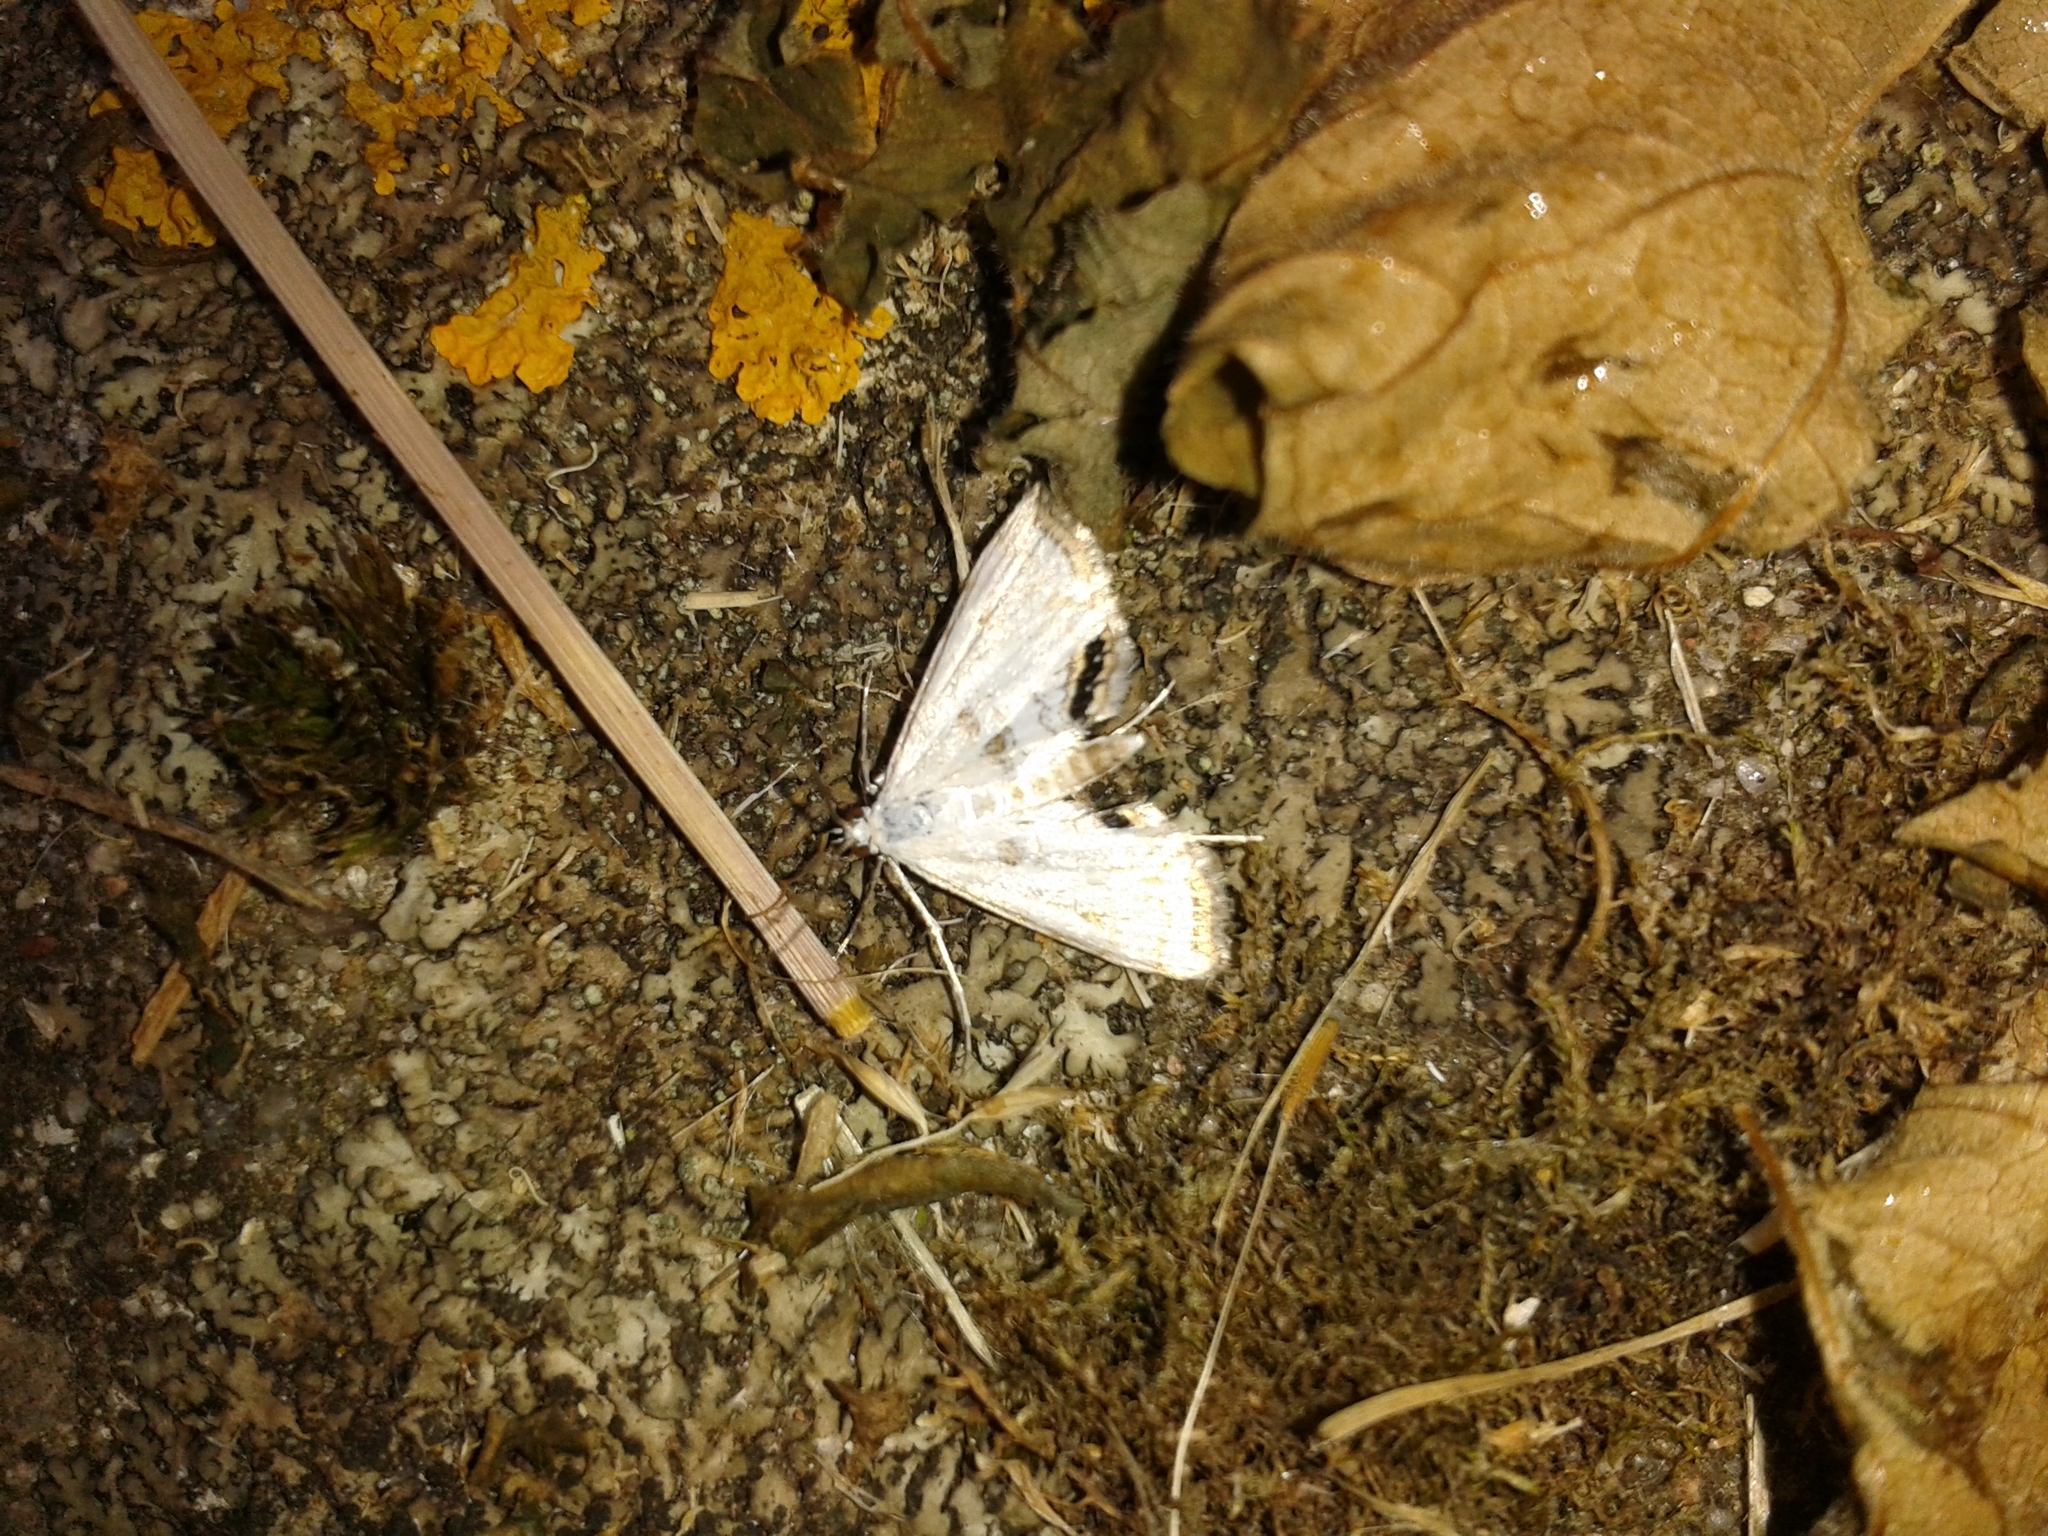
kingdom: Animalia
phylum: Arthropoda
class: Insecta
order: Lepidoptera
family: Crambidae
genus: Cataclysta
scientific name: Cataclysta lemnata
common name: Small china-mark
